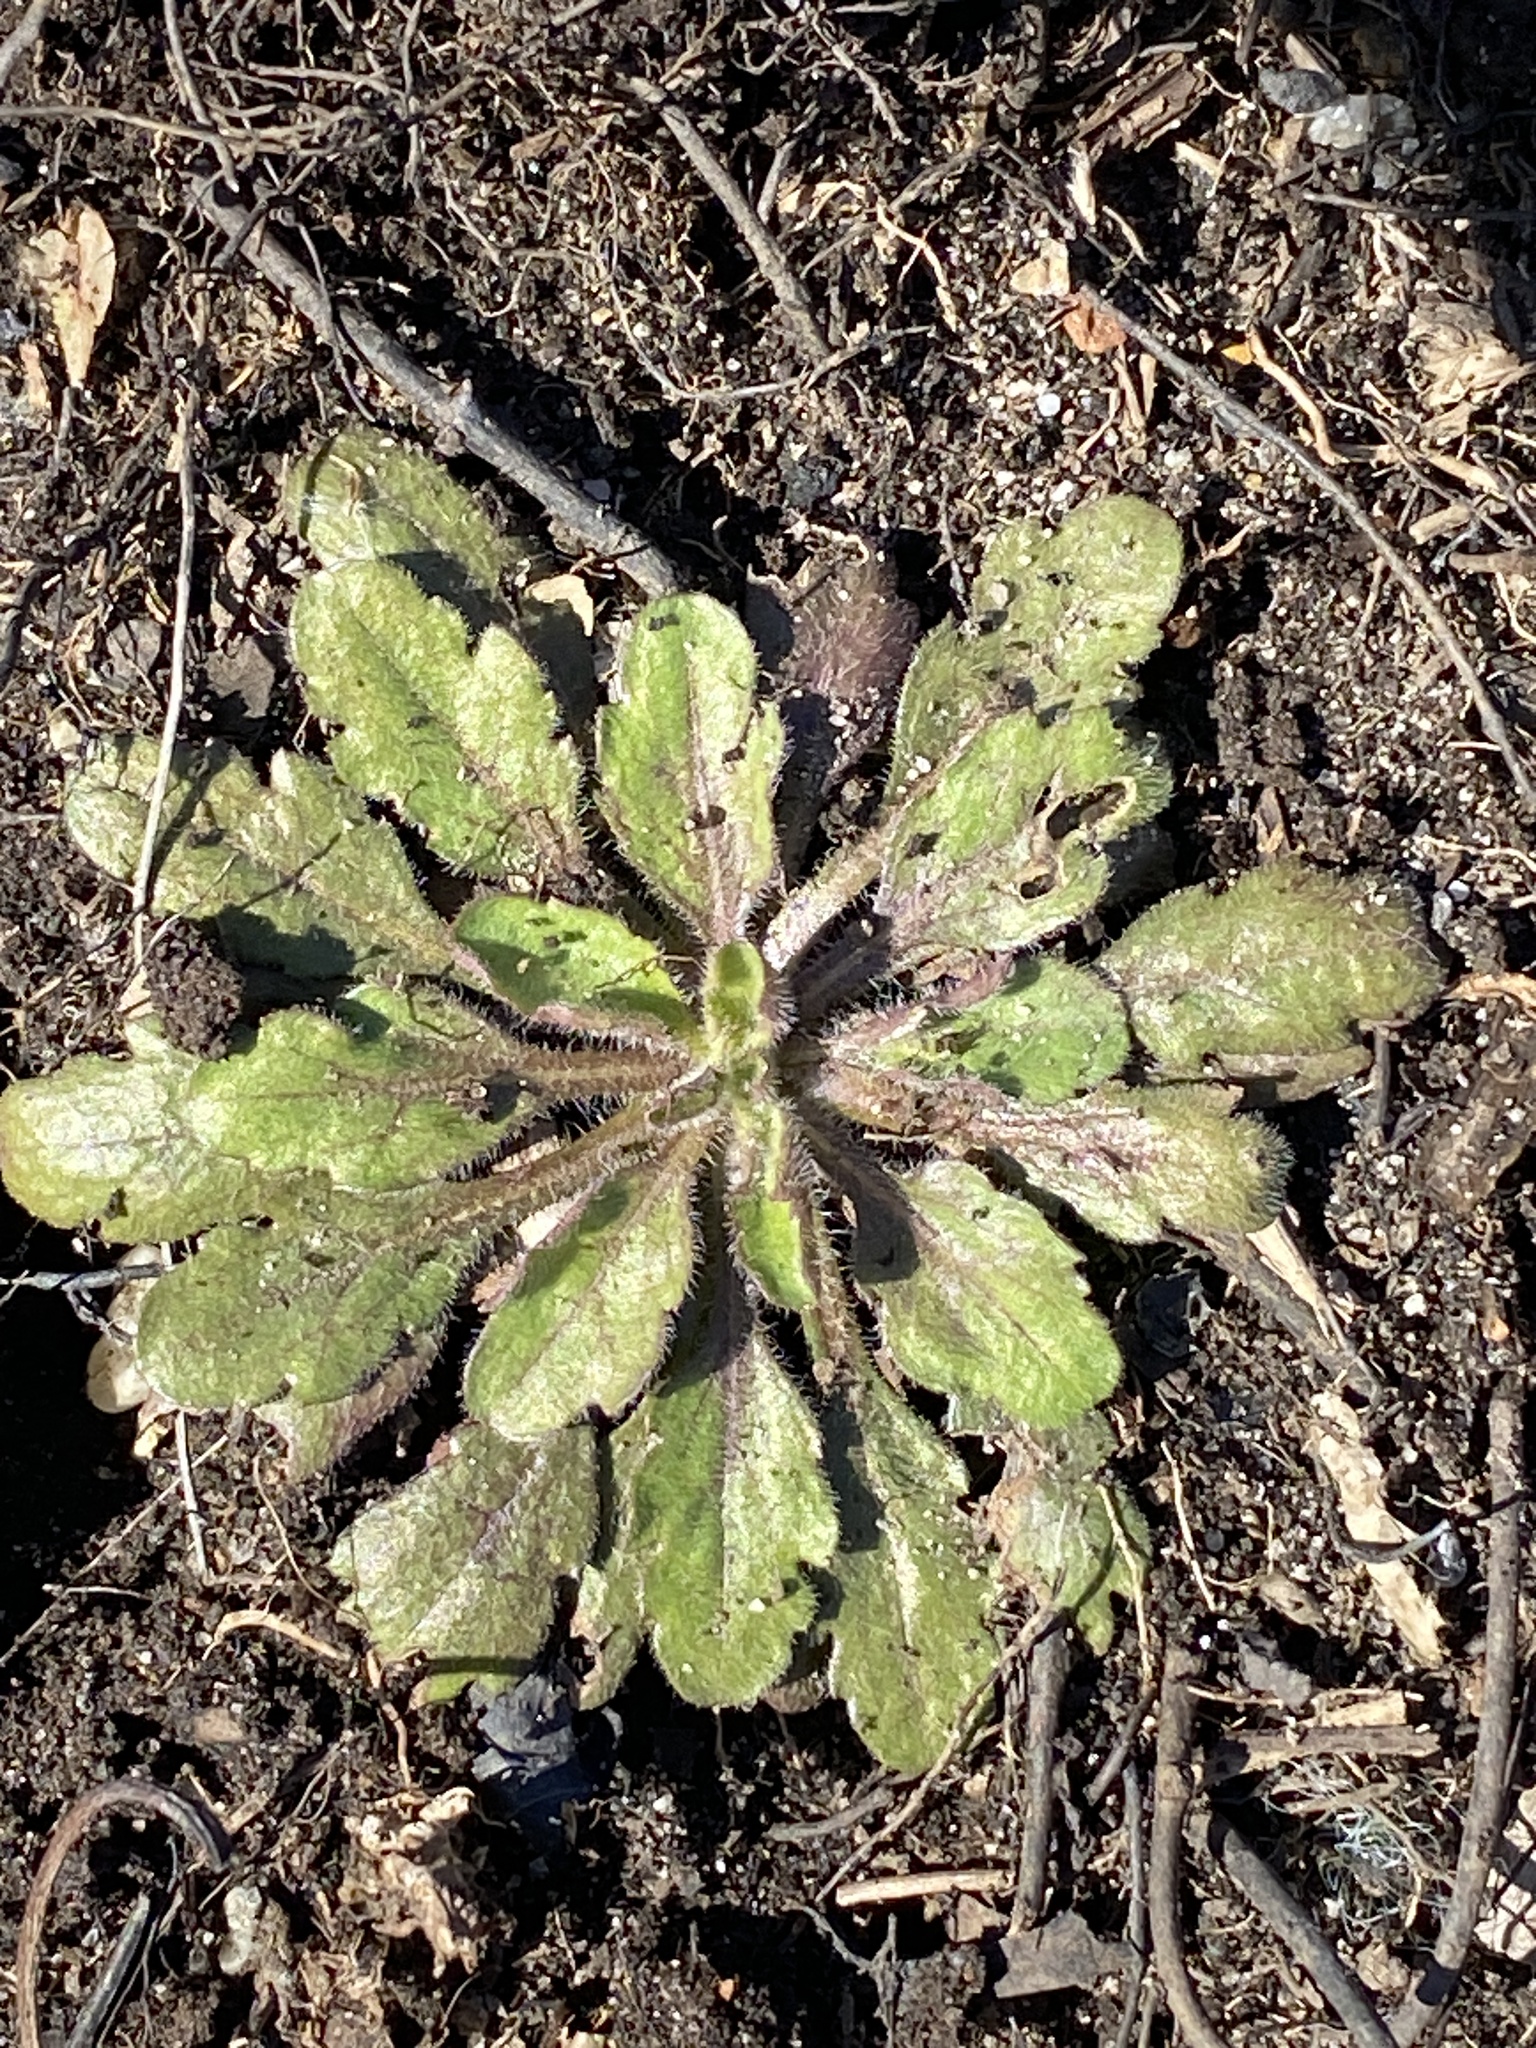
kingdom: Plantae
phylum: Tracheophyta
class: Magnoliopsida
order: Asterales
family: Asteraceae
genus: Erigeron
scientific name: Erigeron canadensis
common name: Canadian fleabane
